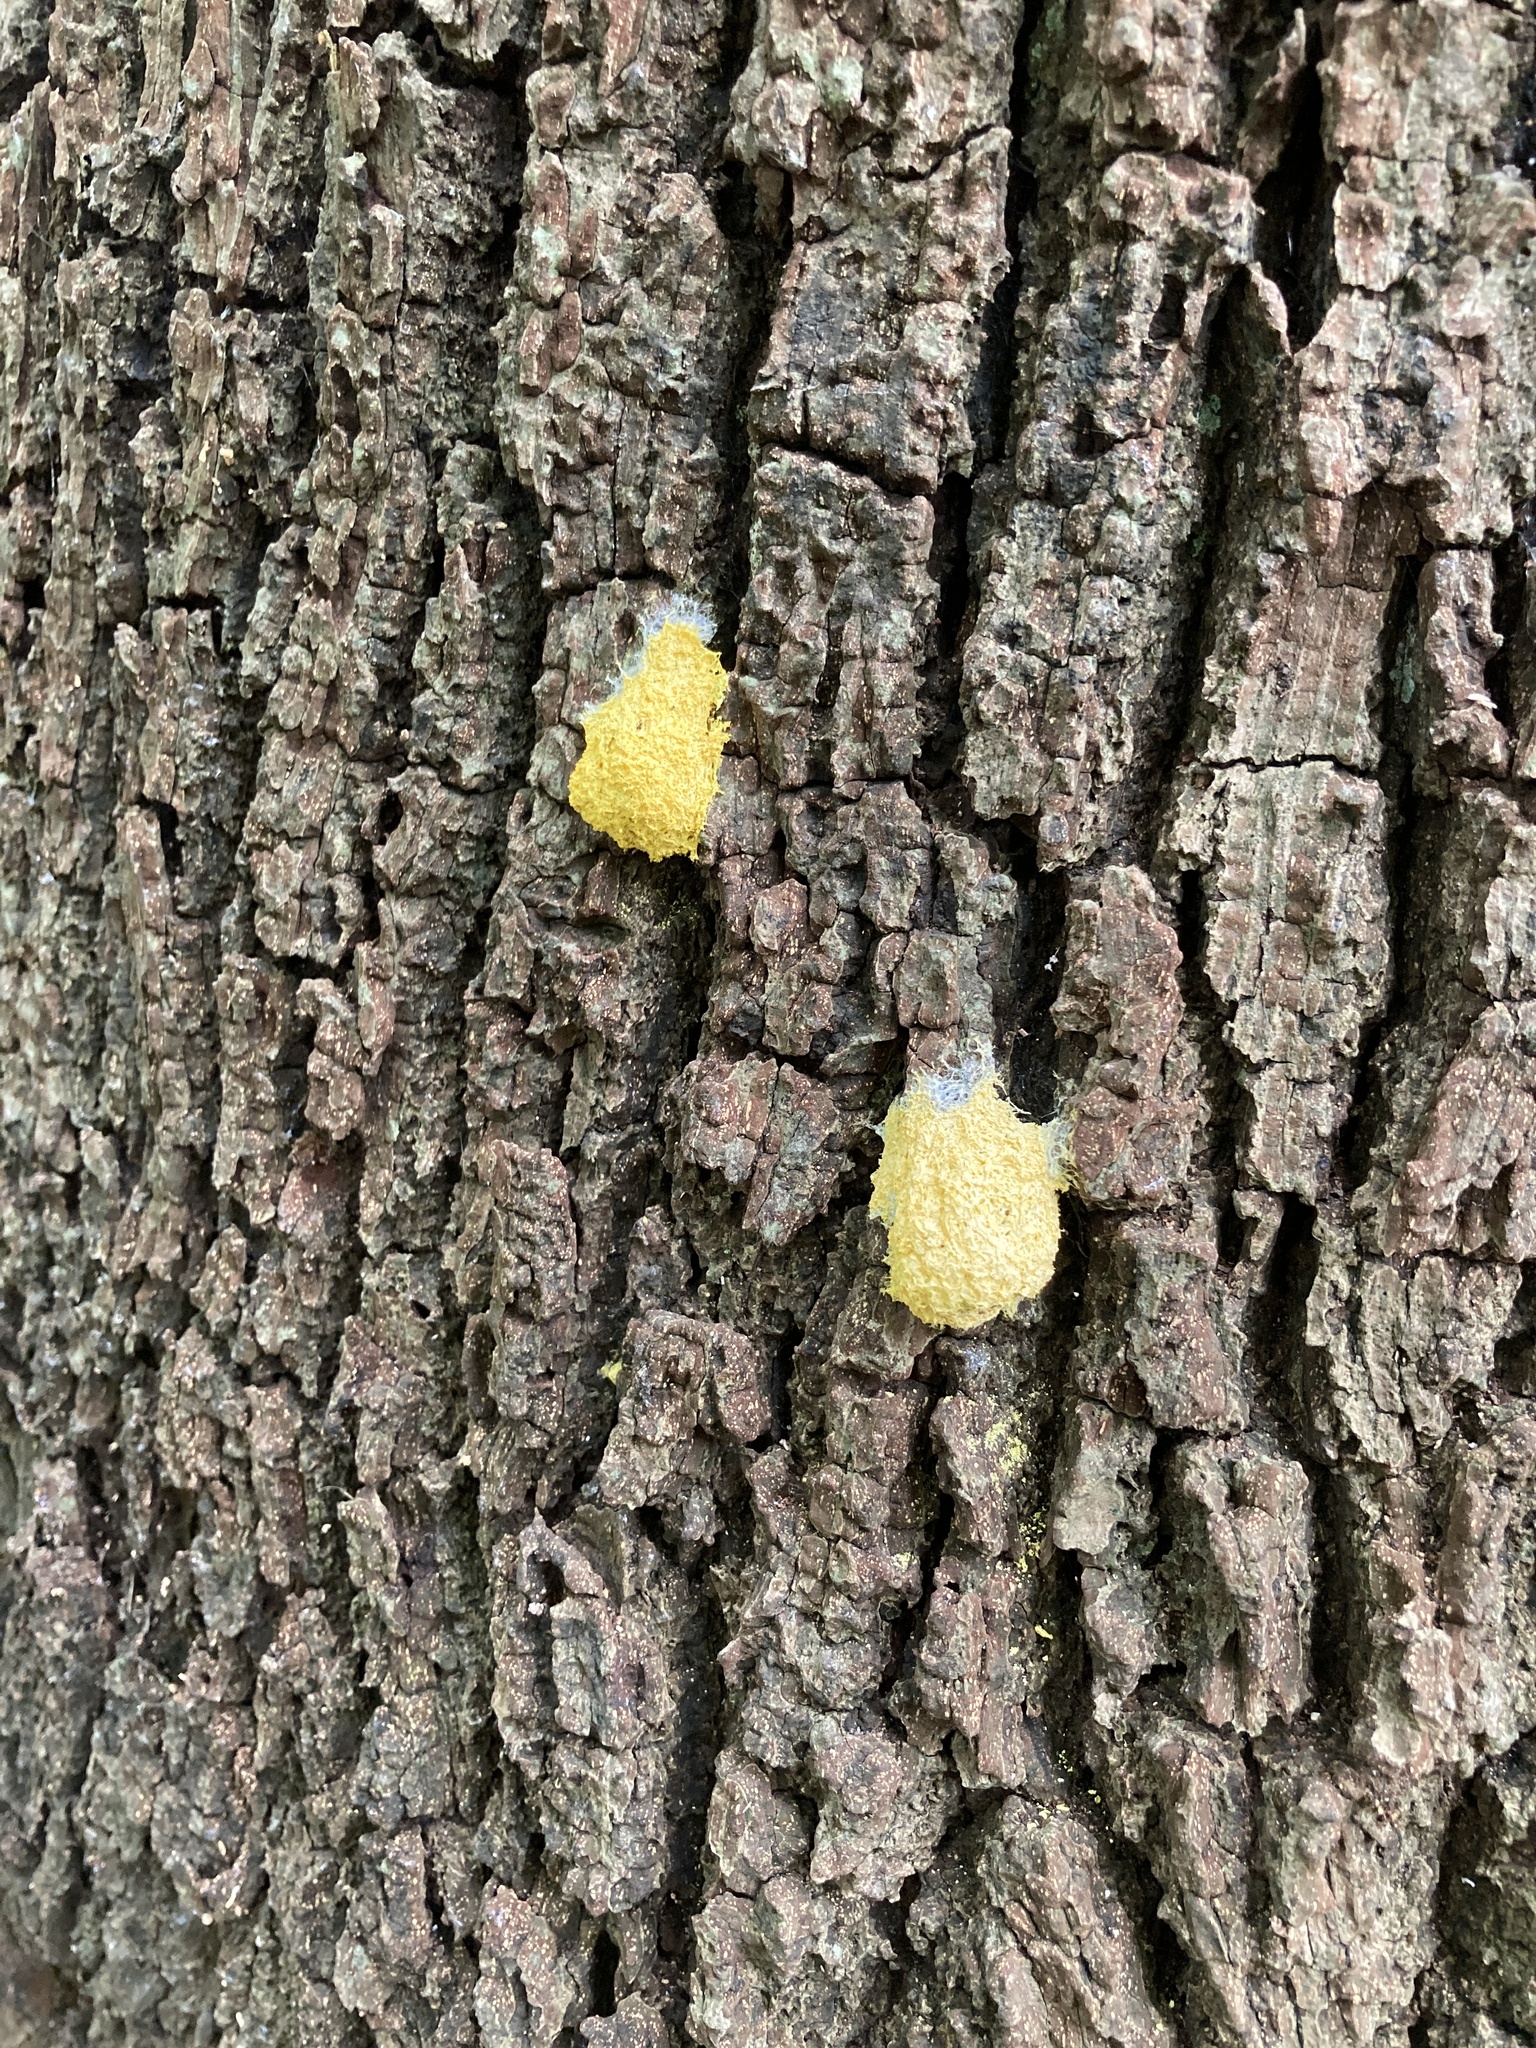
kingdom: Protozoa
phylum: Mycetozoa
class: Myxomycetes
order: Physarales
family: Physaraceae
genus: Fuligo
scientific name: Fuligo septica
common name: Dog vomit slime mold
